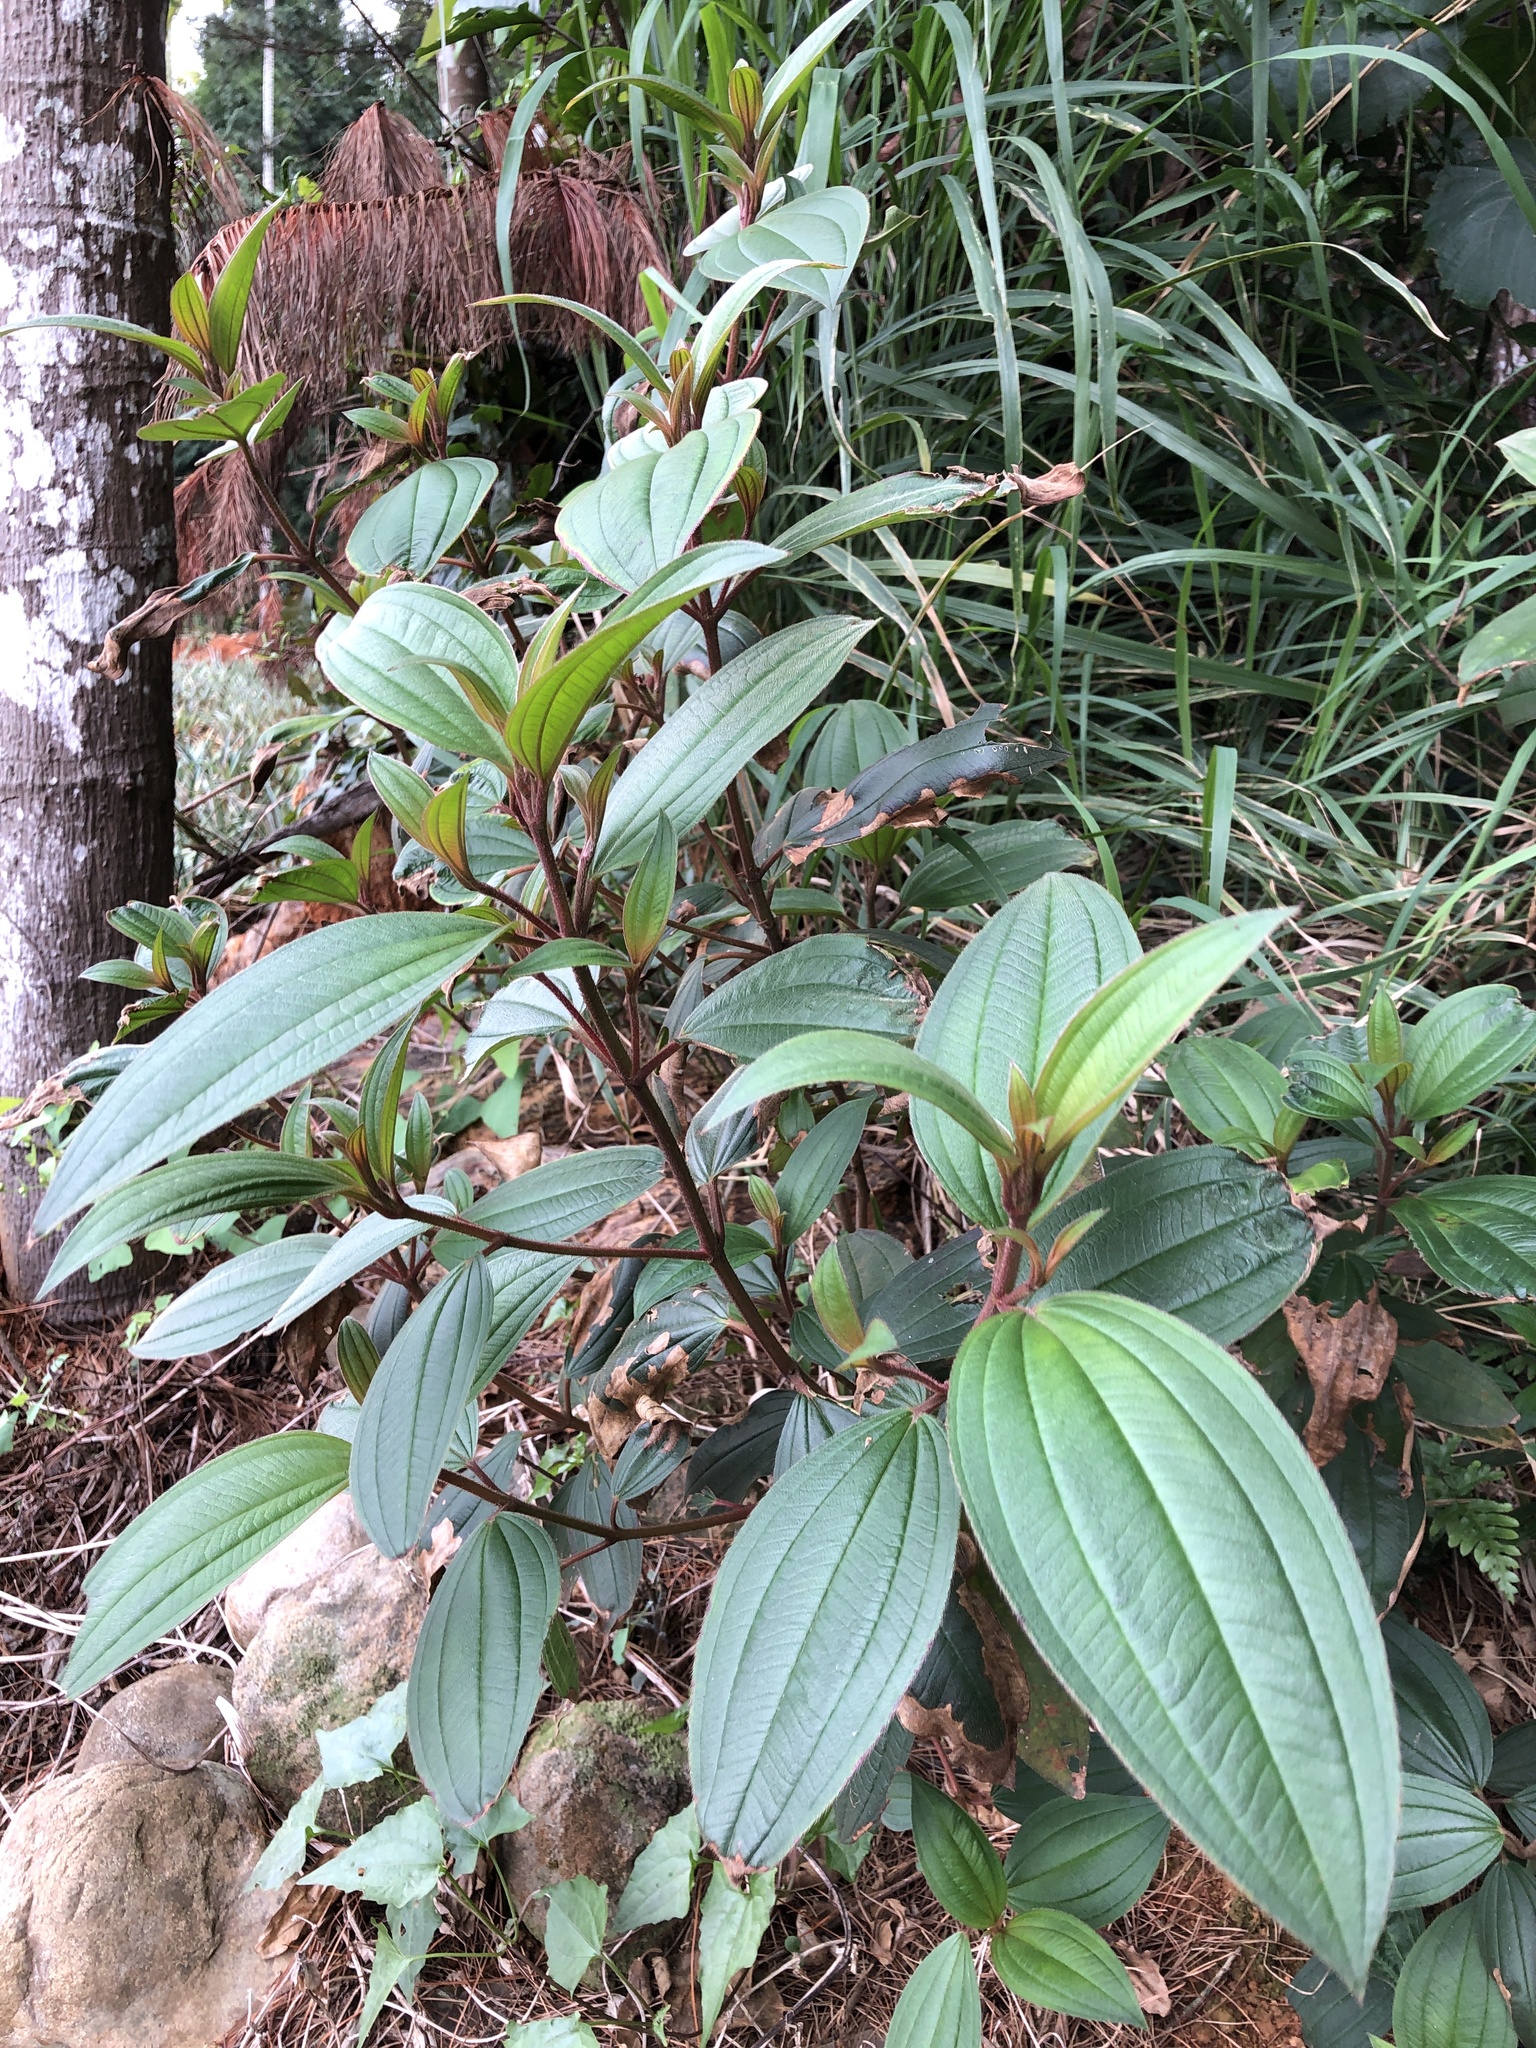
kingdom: Plantae
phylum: Tracheophyta
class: Magnoliopsida
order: Myrtales
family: Melastomataceae
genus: Melastoma
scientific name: Melastoma malabathricum
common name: Indian-rhododendron
